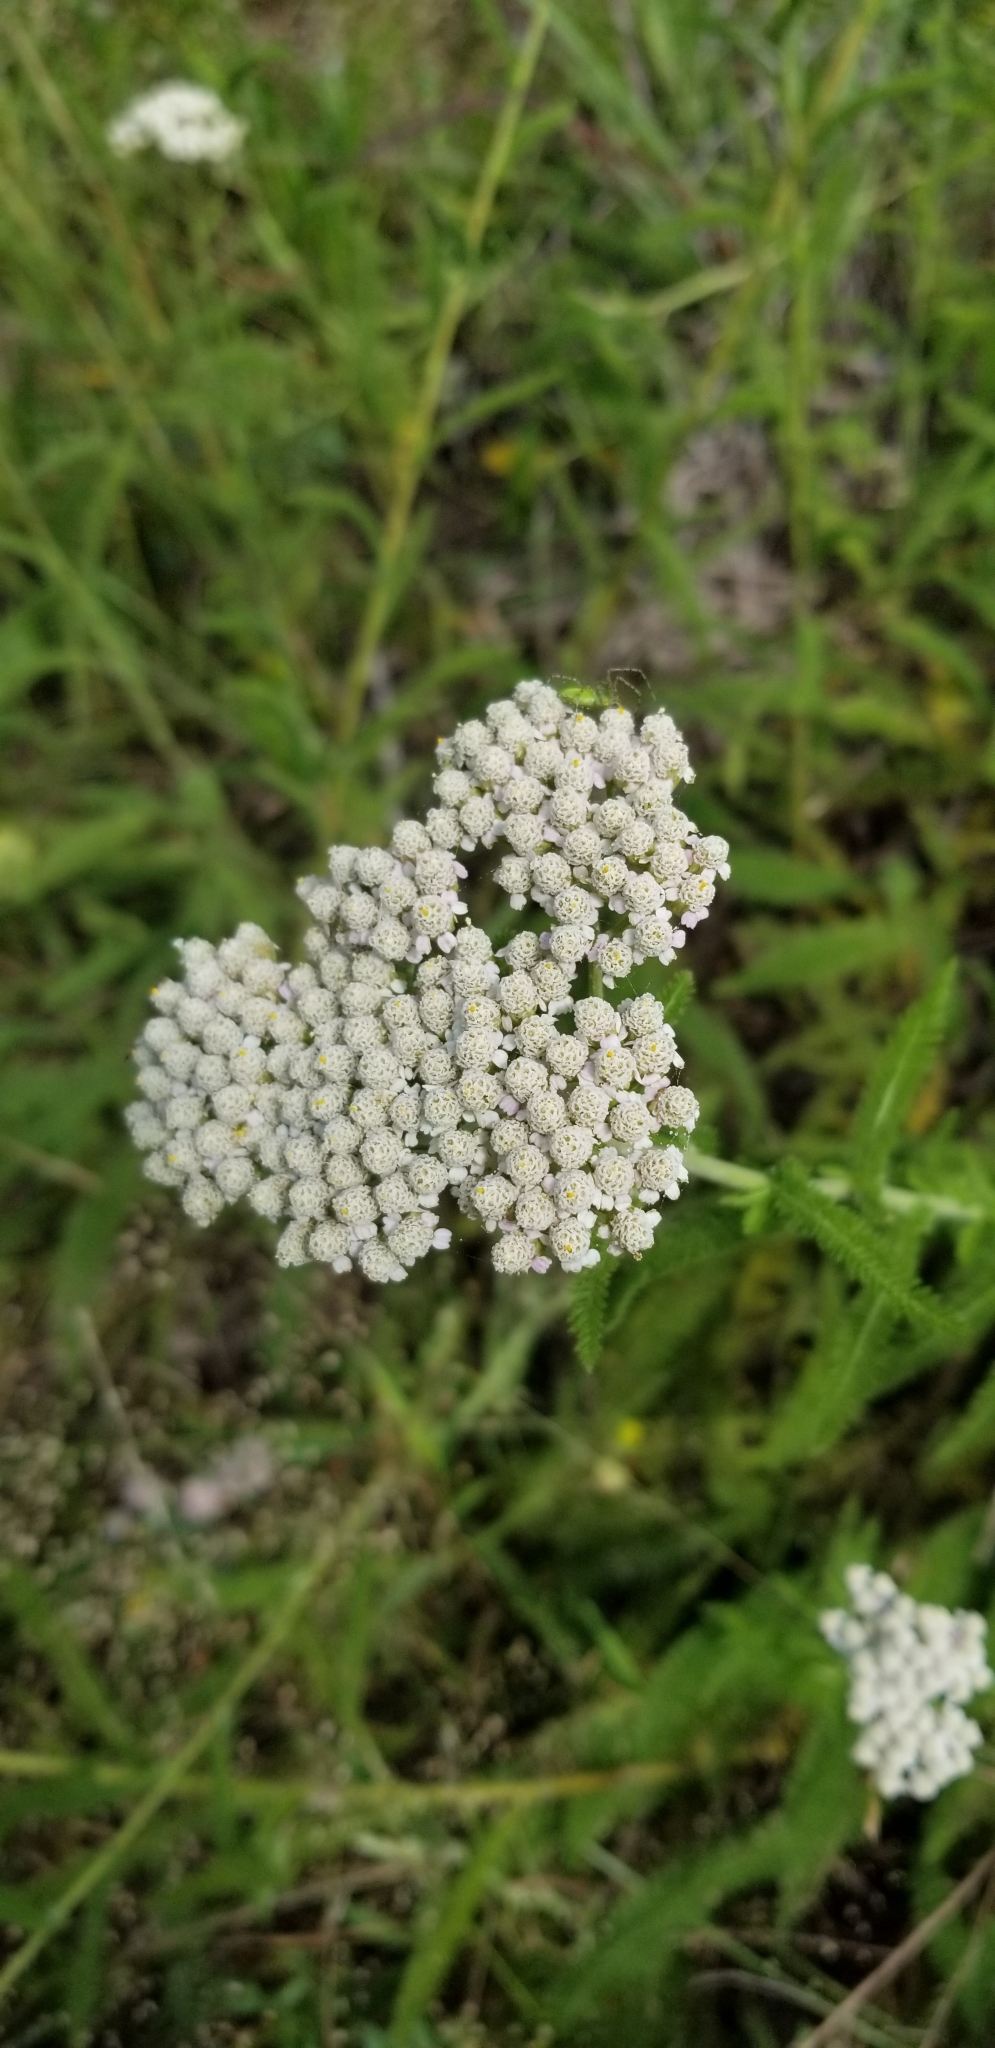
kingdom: Plantae
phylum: Tracheophyta
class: Magnoliopsida
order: Asterales
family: Asteraceae
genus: Achillea
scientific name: Achillea millefolium
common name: Yarrow
